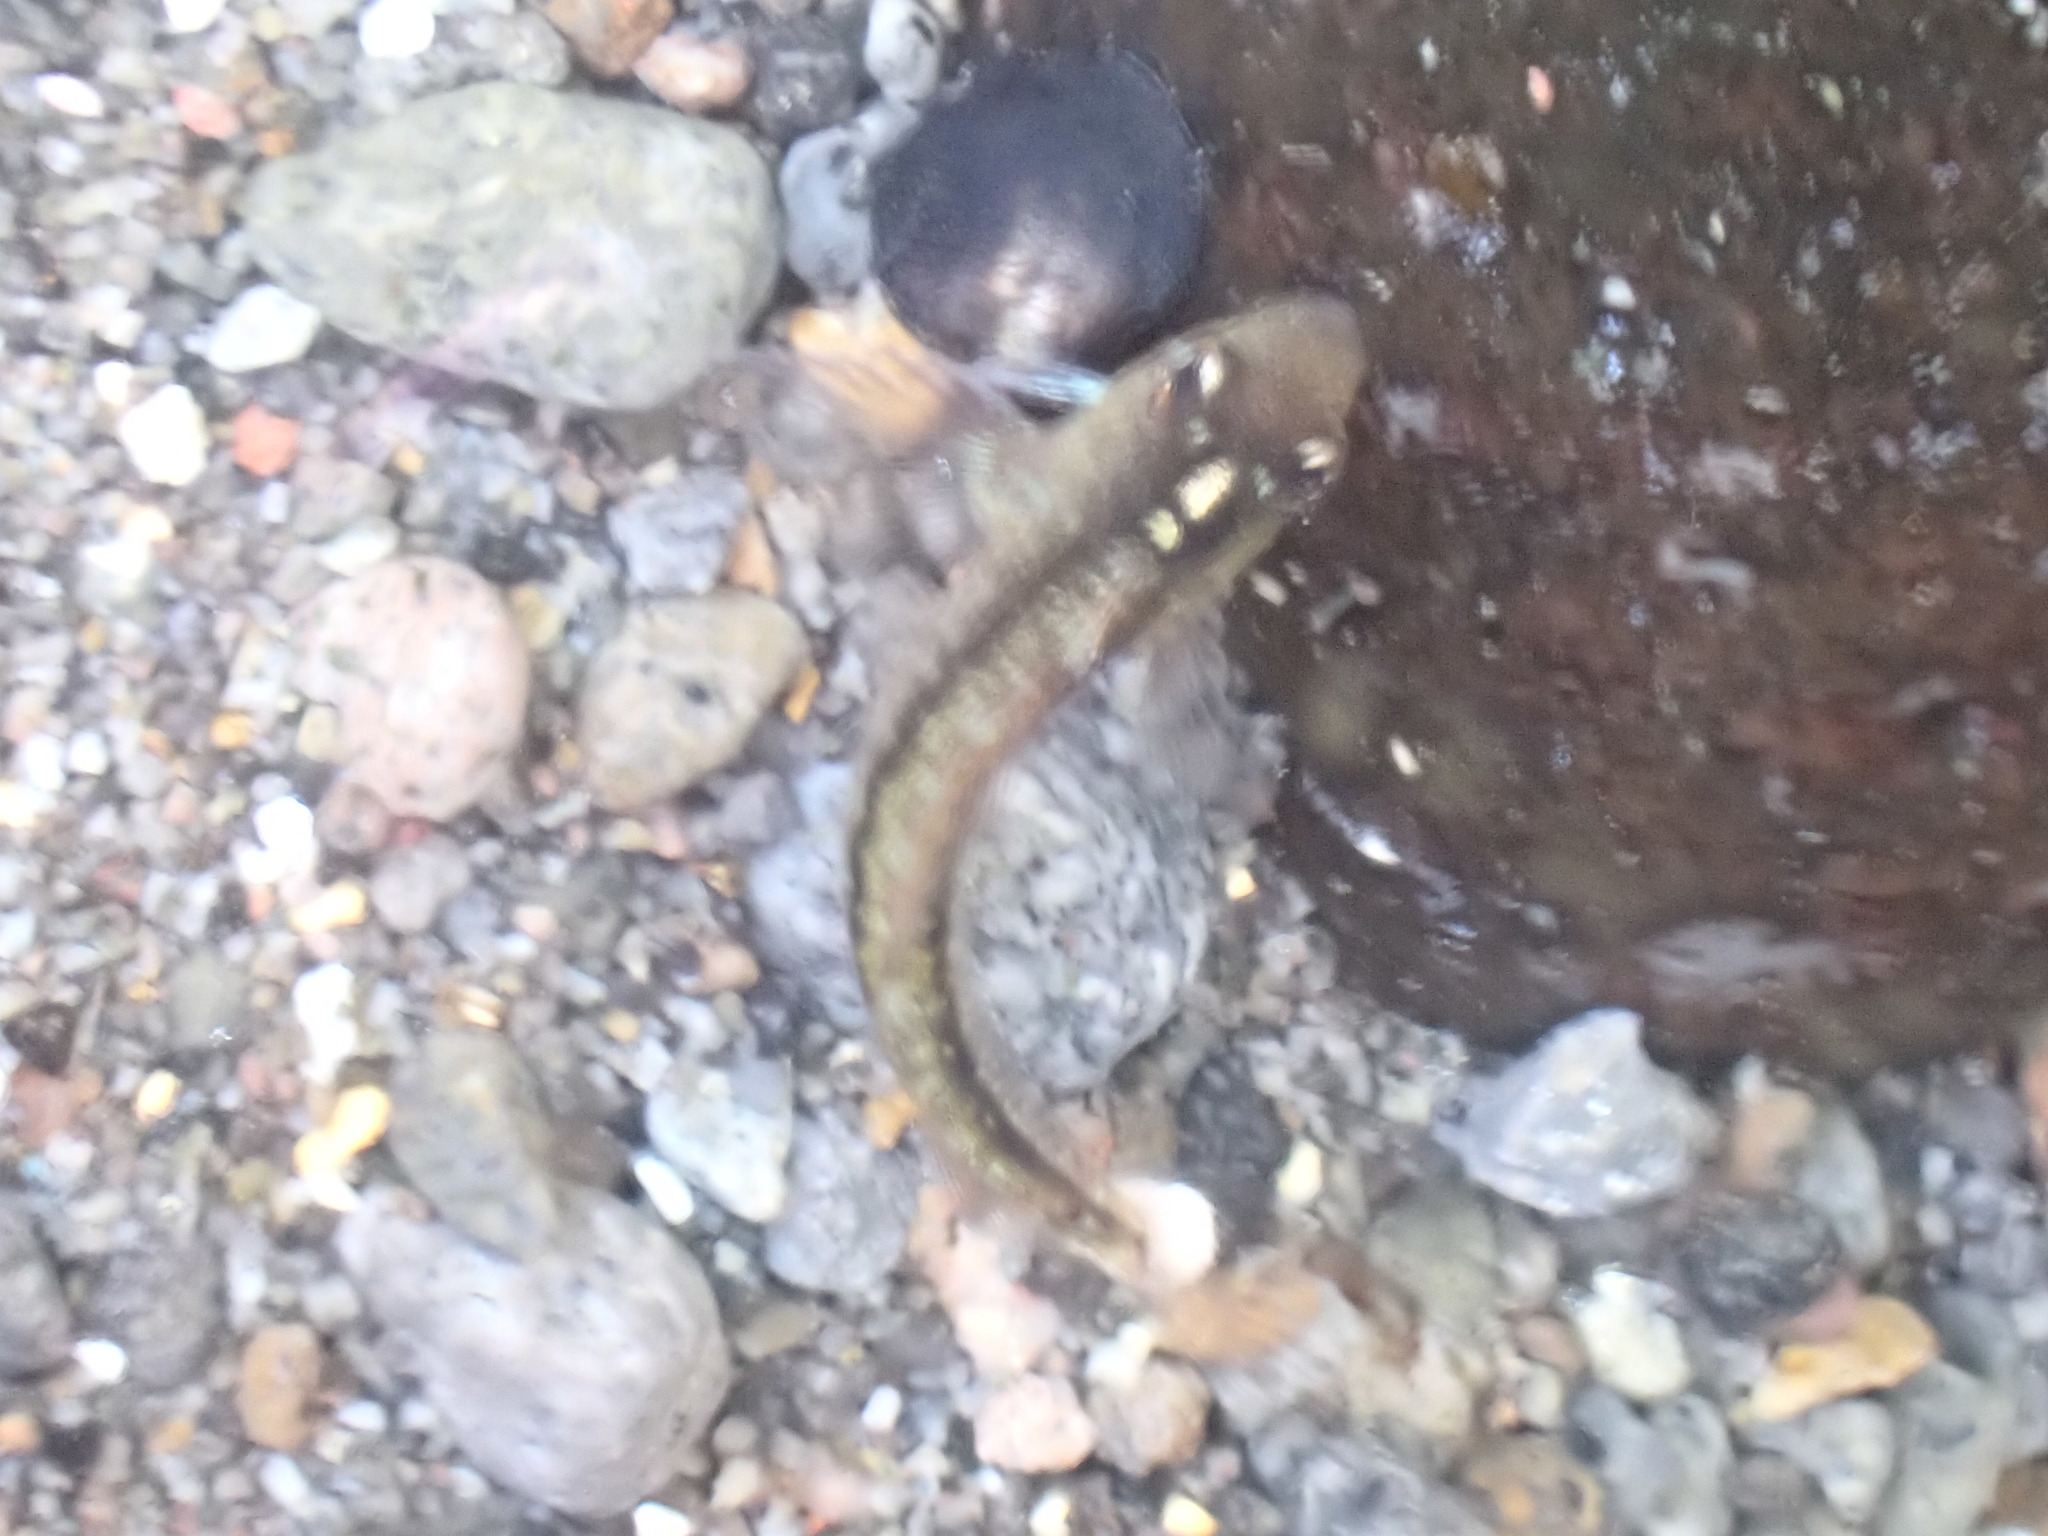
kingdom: Animalia
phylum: Chordata
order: Perciformes
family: Tripterygiidae
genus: Forsterygion
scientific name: Forsterygion lapillum
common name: Common triplefin
